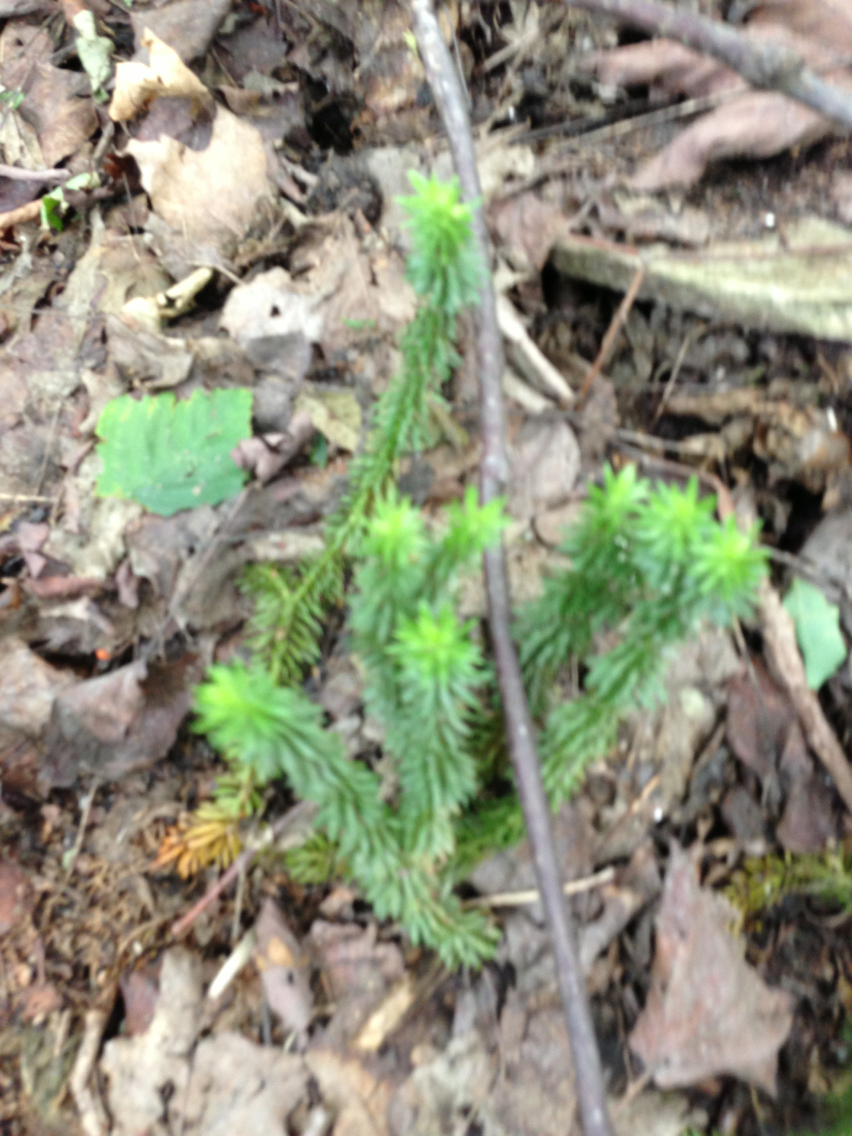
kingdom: Plantae
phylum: Tracheophyta
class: Lycopodiopsida
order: Lycopodiales
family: Lycopodiaceae
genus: Huperzia
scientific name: Huperzia lucidula
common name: Shining clubmoss
